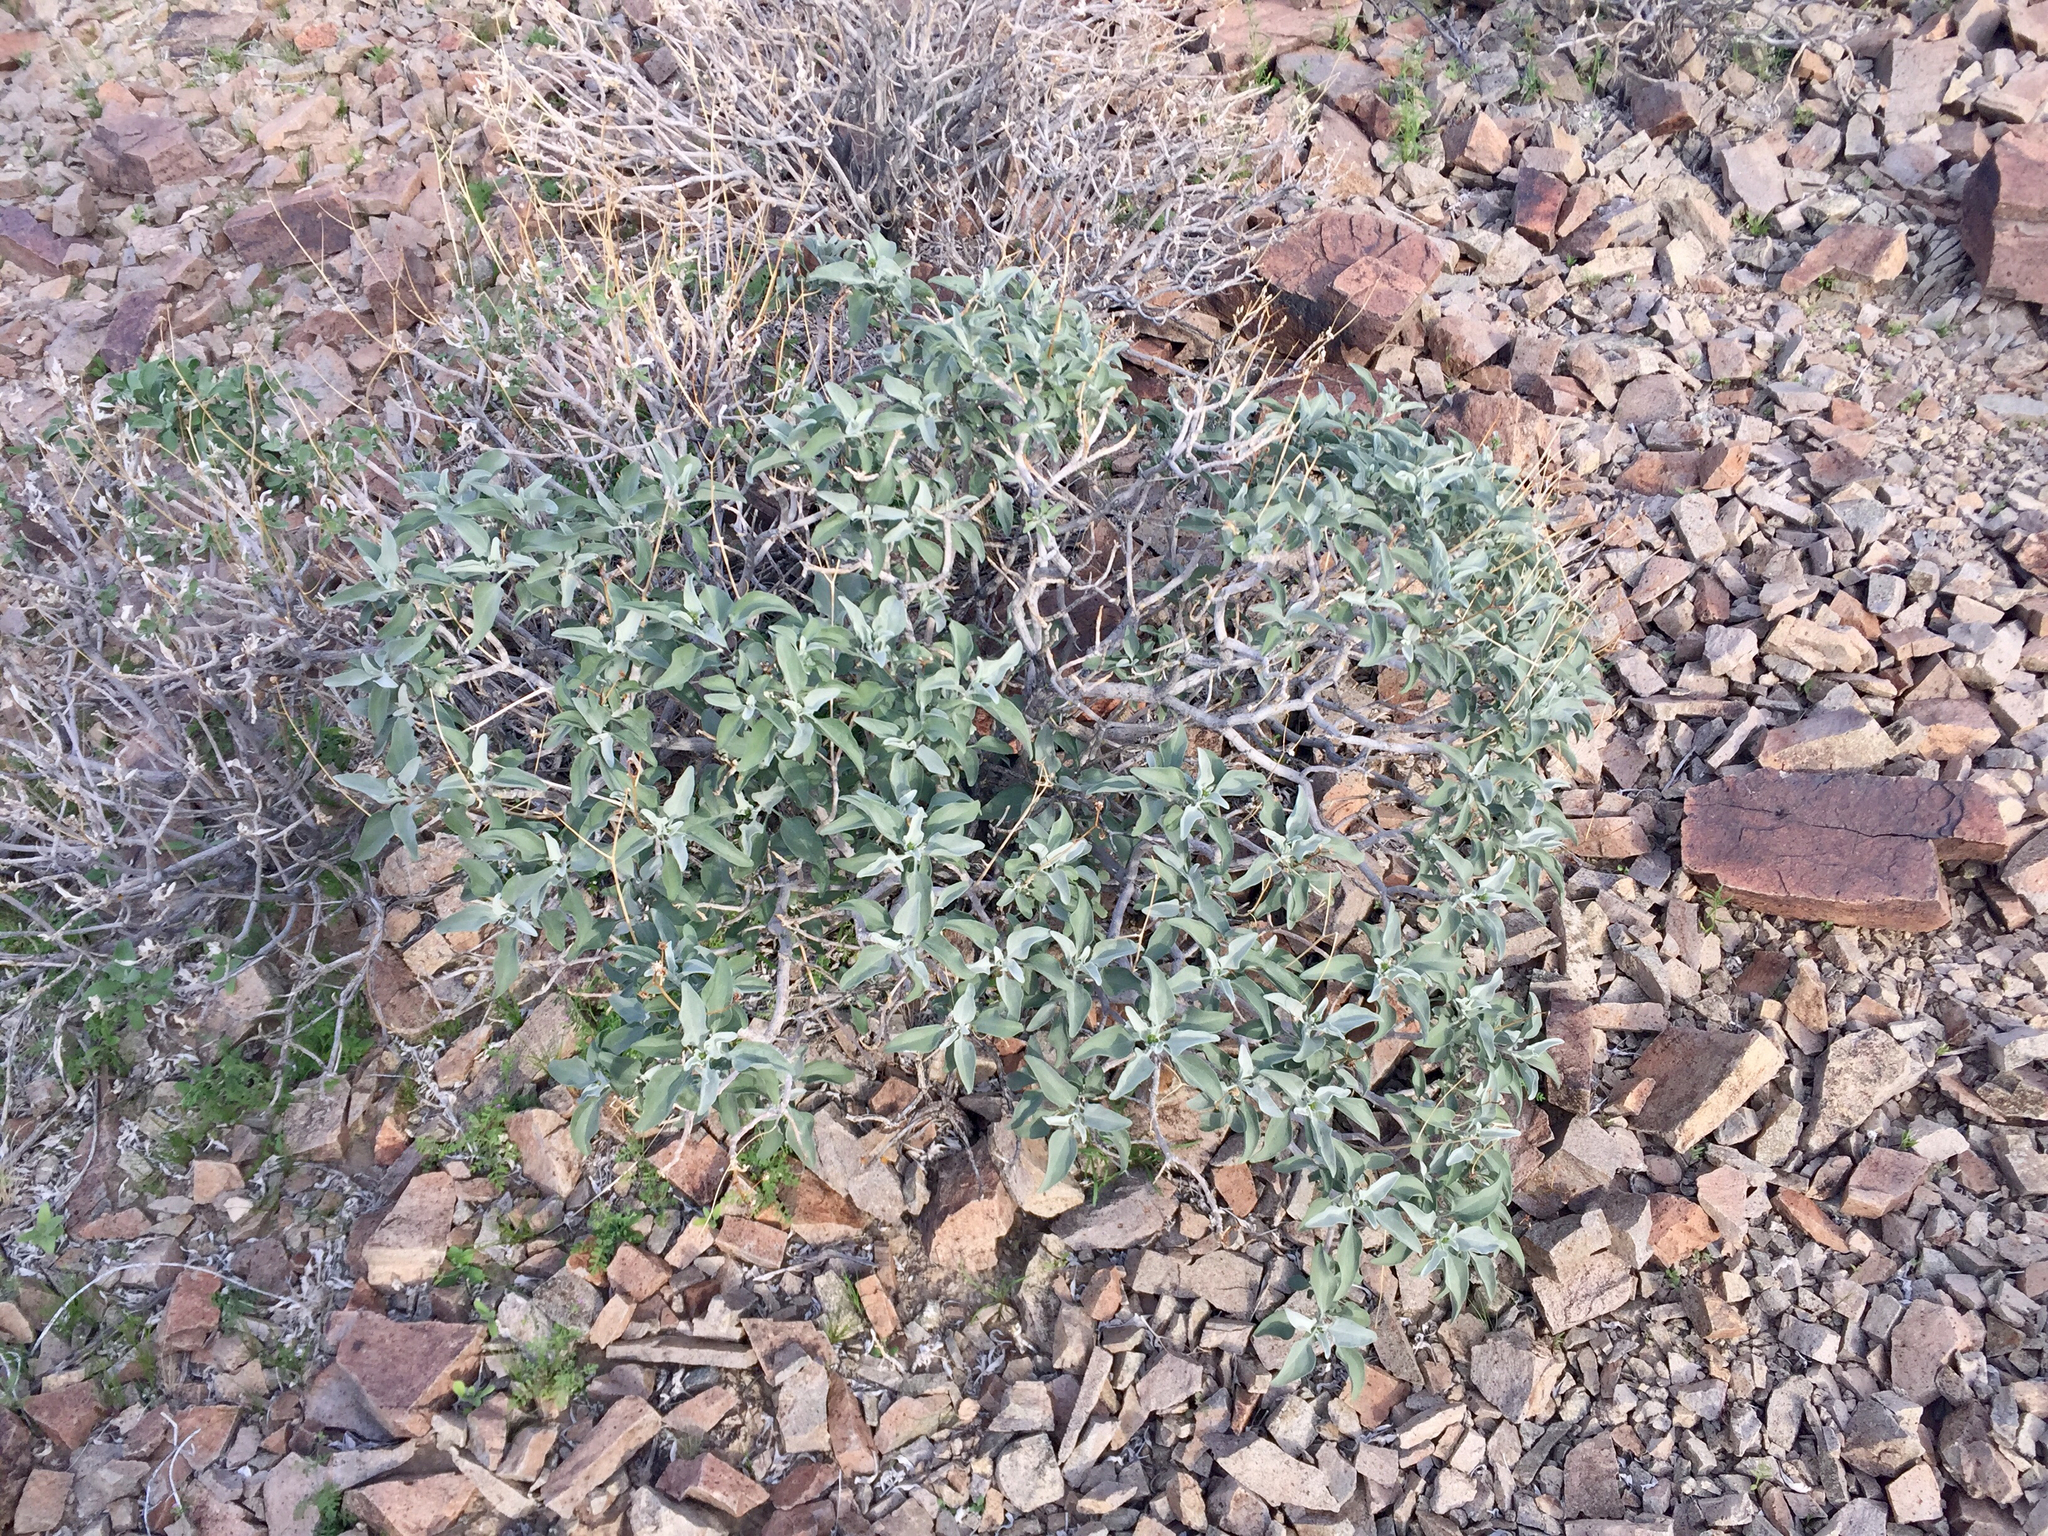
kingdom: Plantae
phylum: Tracheophyta
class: Magnoliopsida
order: Asterales
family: Asteraceae
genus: Encelia
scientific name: Encelia farinosa
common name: Brittlebush
